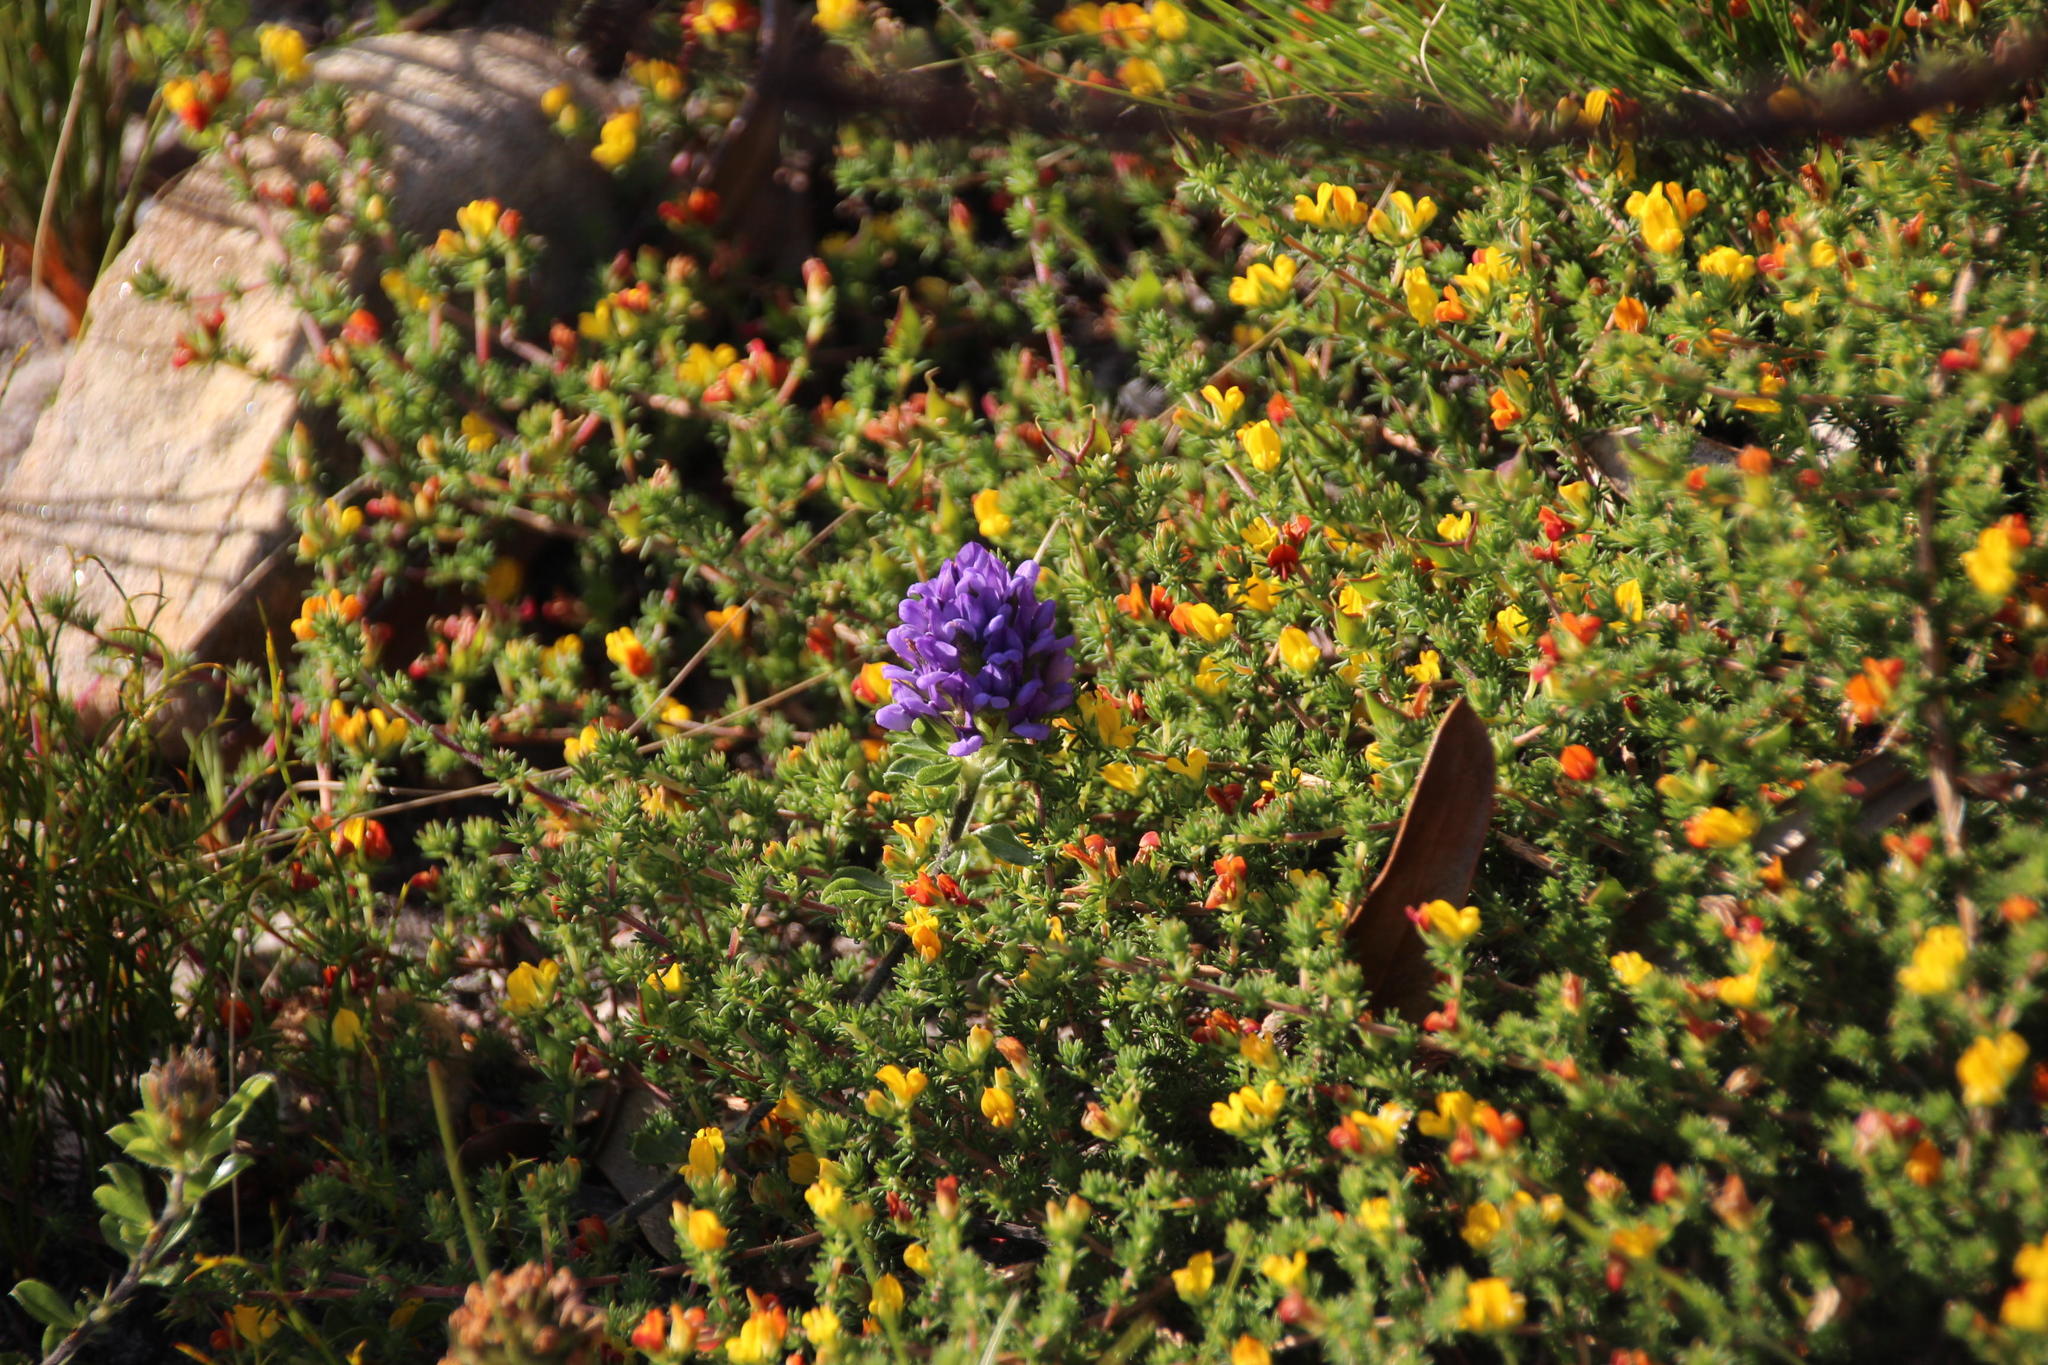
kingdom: Plantae
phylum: Tracheophyta
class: Magnoliopsida
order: Fabales
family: Fabaceae
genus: Aspalathus
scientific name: Aspalathus juniperina
